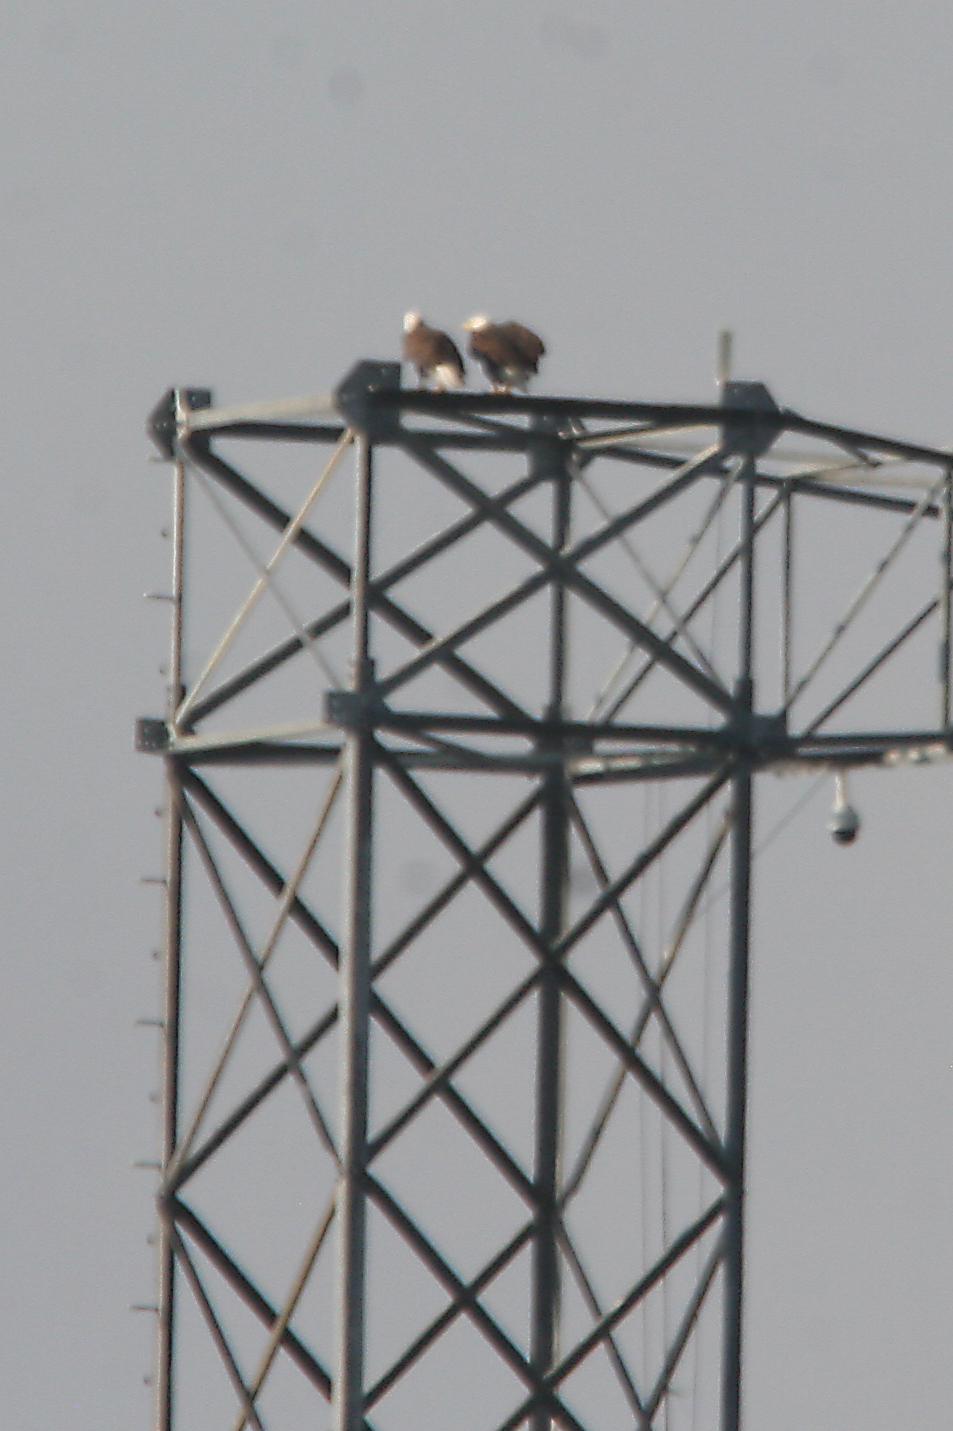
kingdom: Animalia
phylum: Chordata
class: Aves
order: Accipitriformes
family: Accipitridae
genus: Haliaeetus
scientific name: Haliaeetus leucocephalus
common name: Bald eagle
